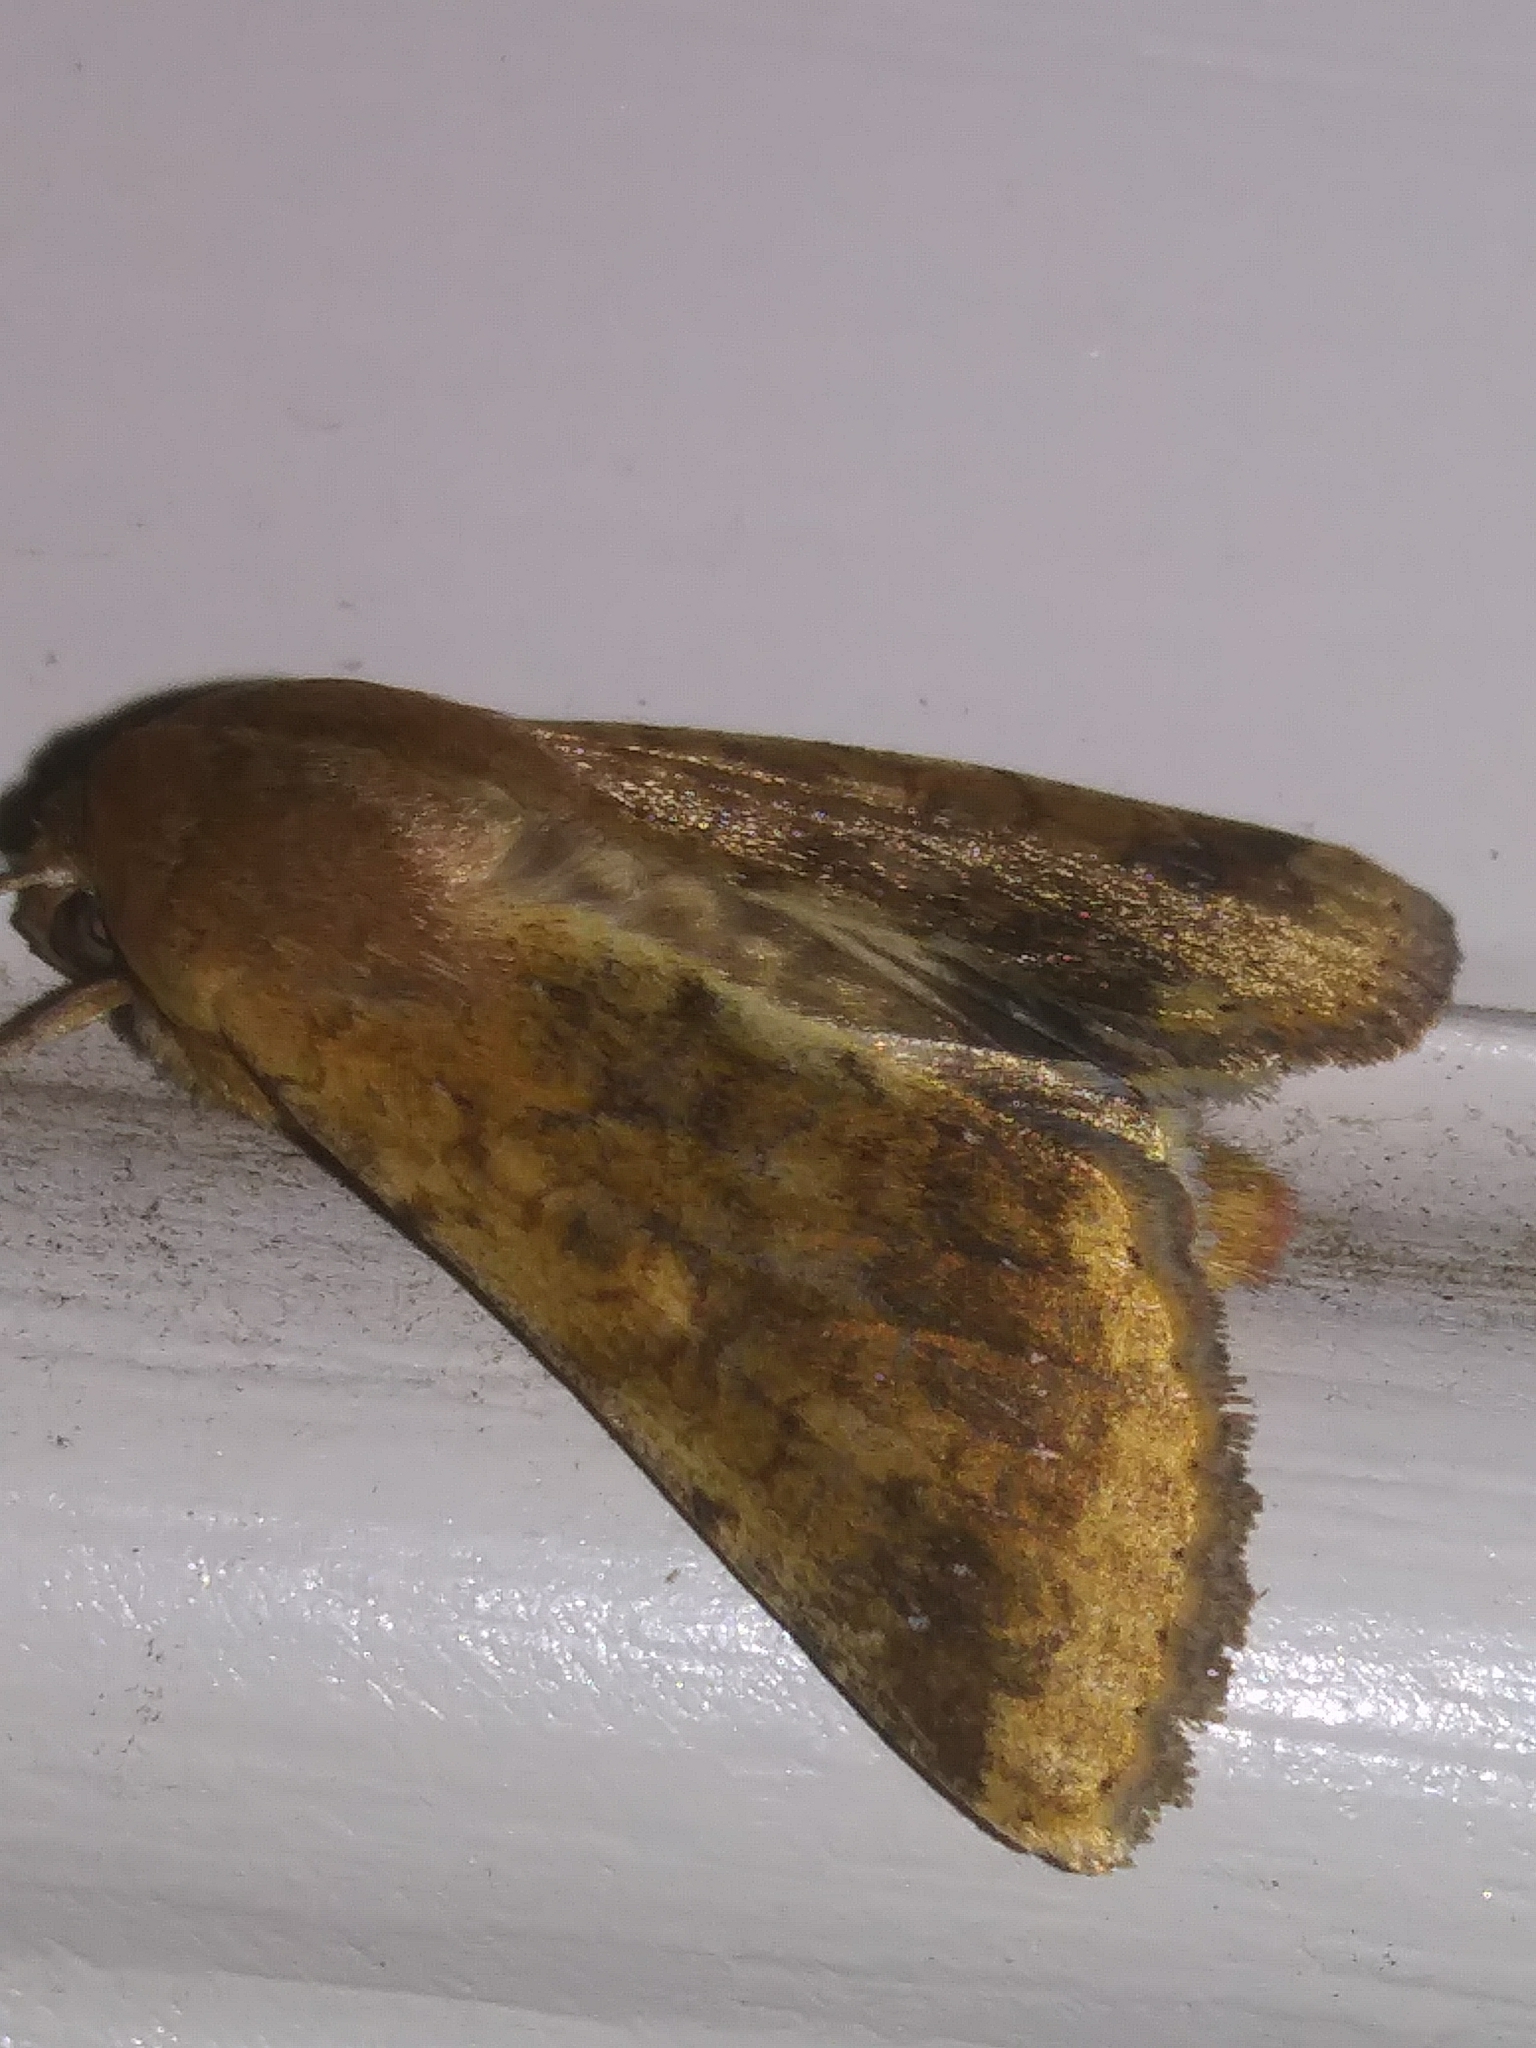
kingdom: Animalia
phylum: Arthropoda
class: Insecta
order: Lepidoptera
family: Noctuidae
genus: Helicoverpa
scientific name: Helicoverpa zea
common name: Bollworm
